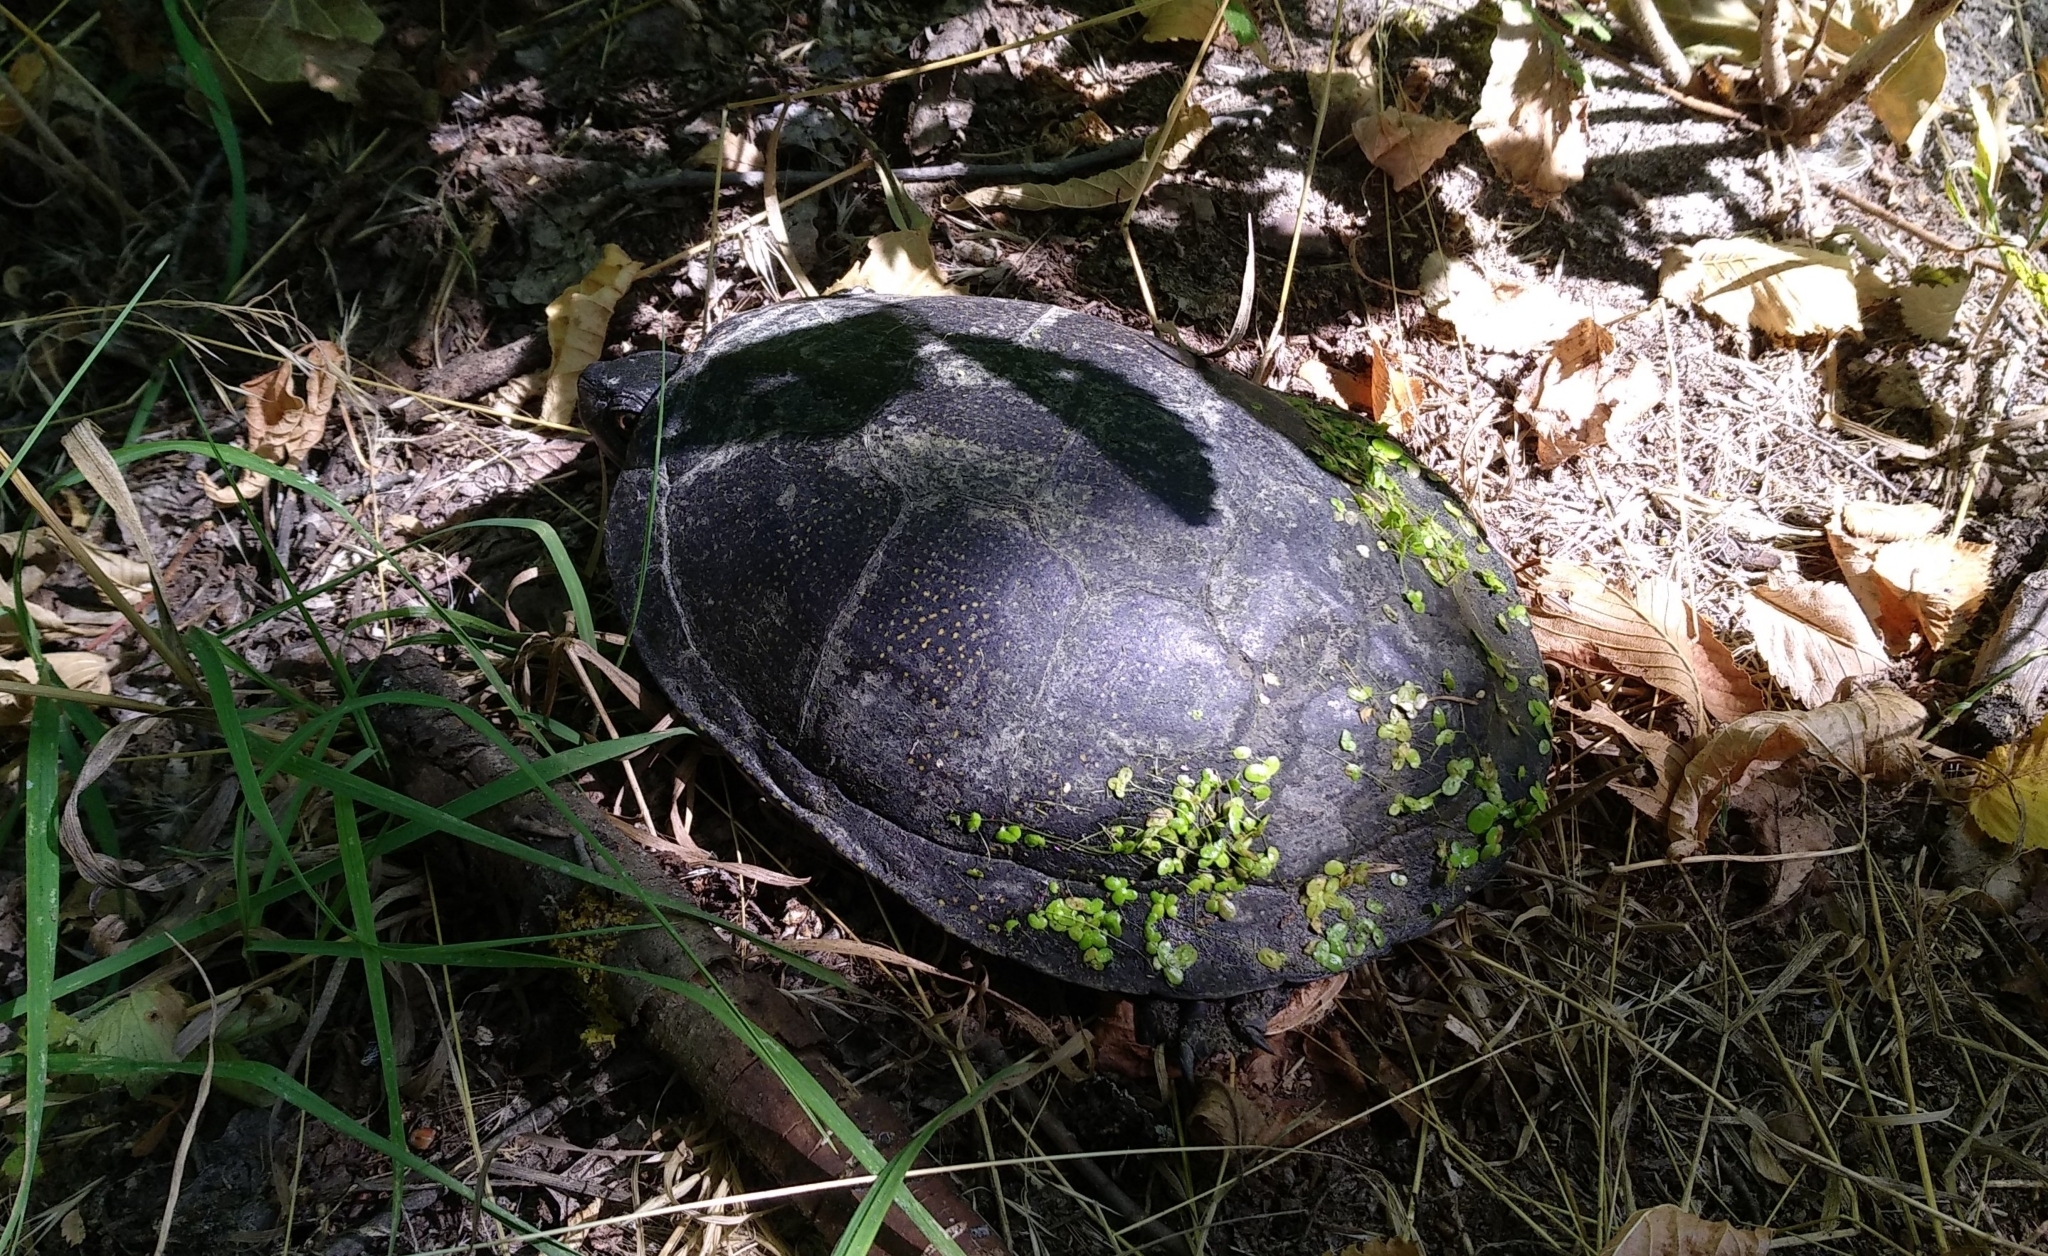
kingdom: Animalia
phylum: Chordata
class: Testudines
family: Emydidae
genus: Emys
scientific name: Emys orbicularis
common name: European pond turtle
